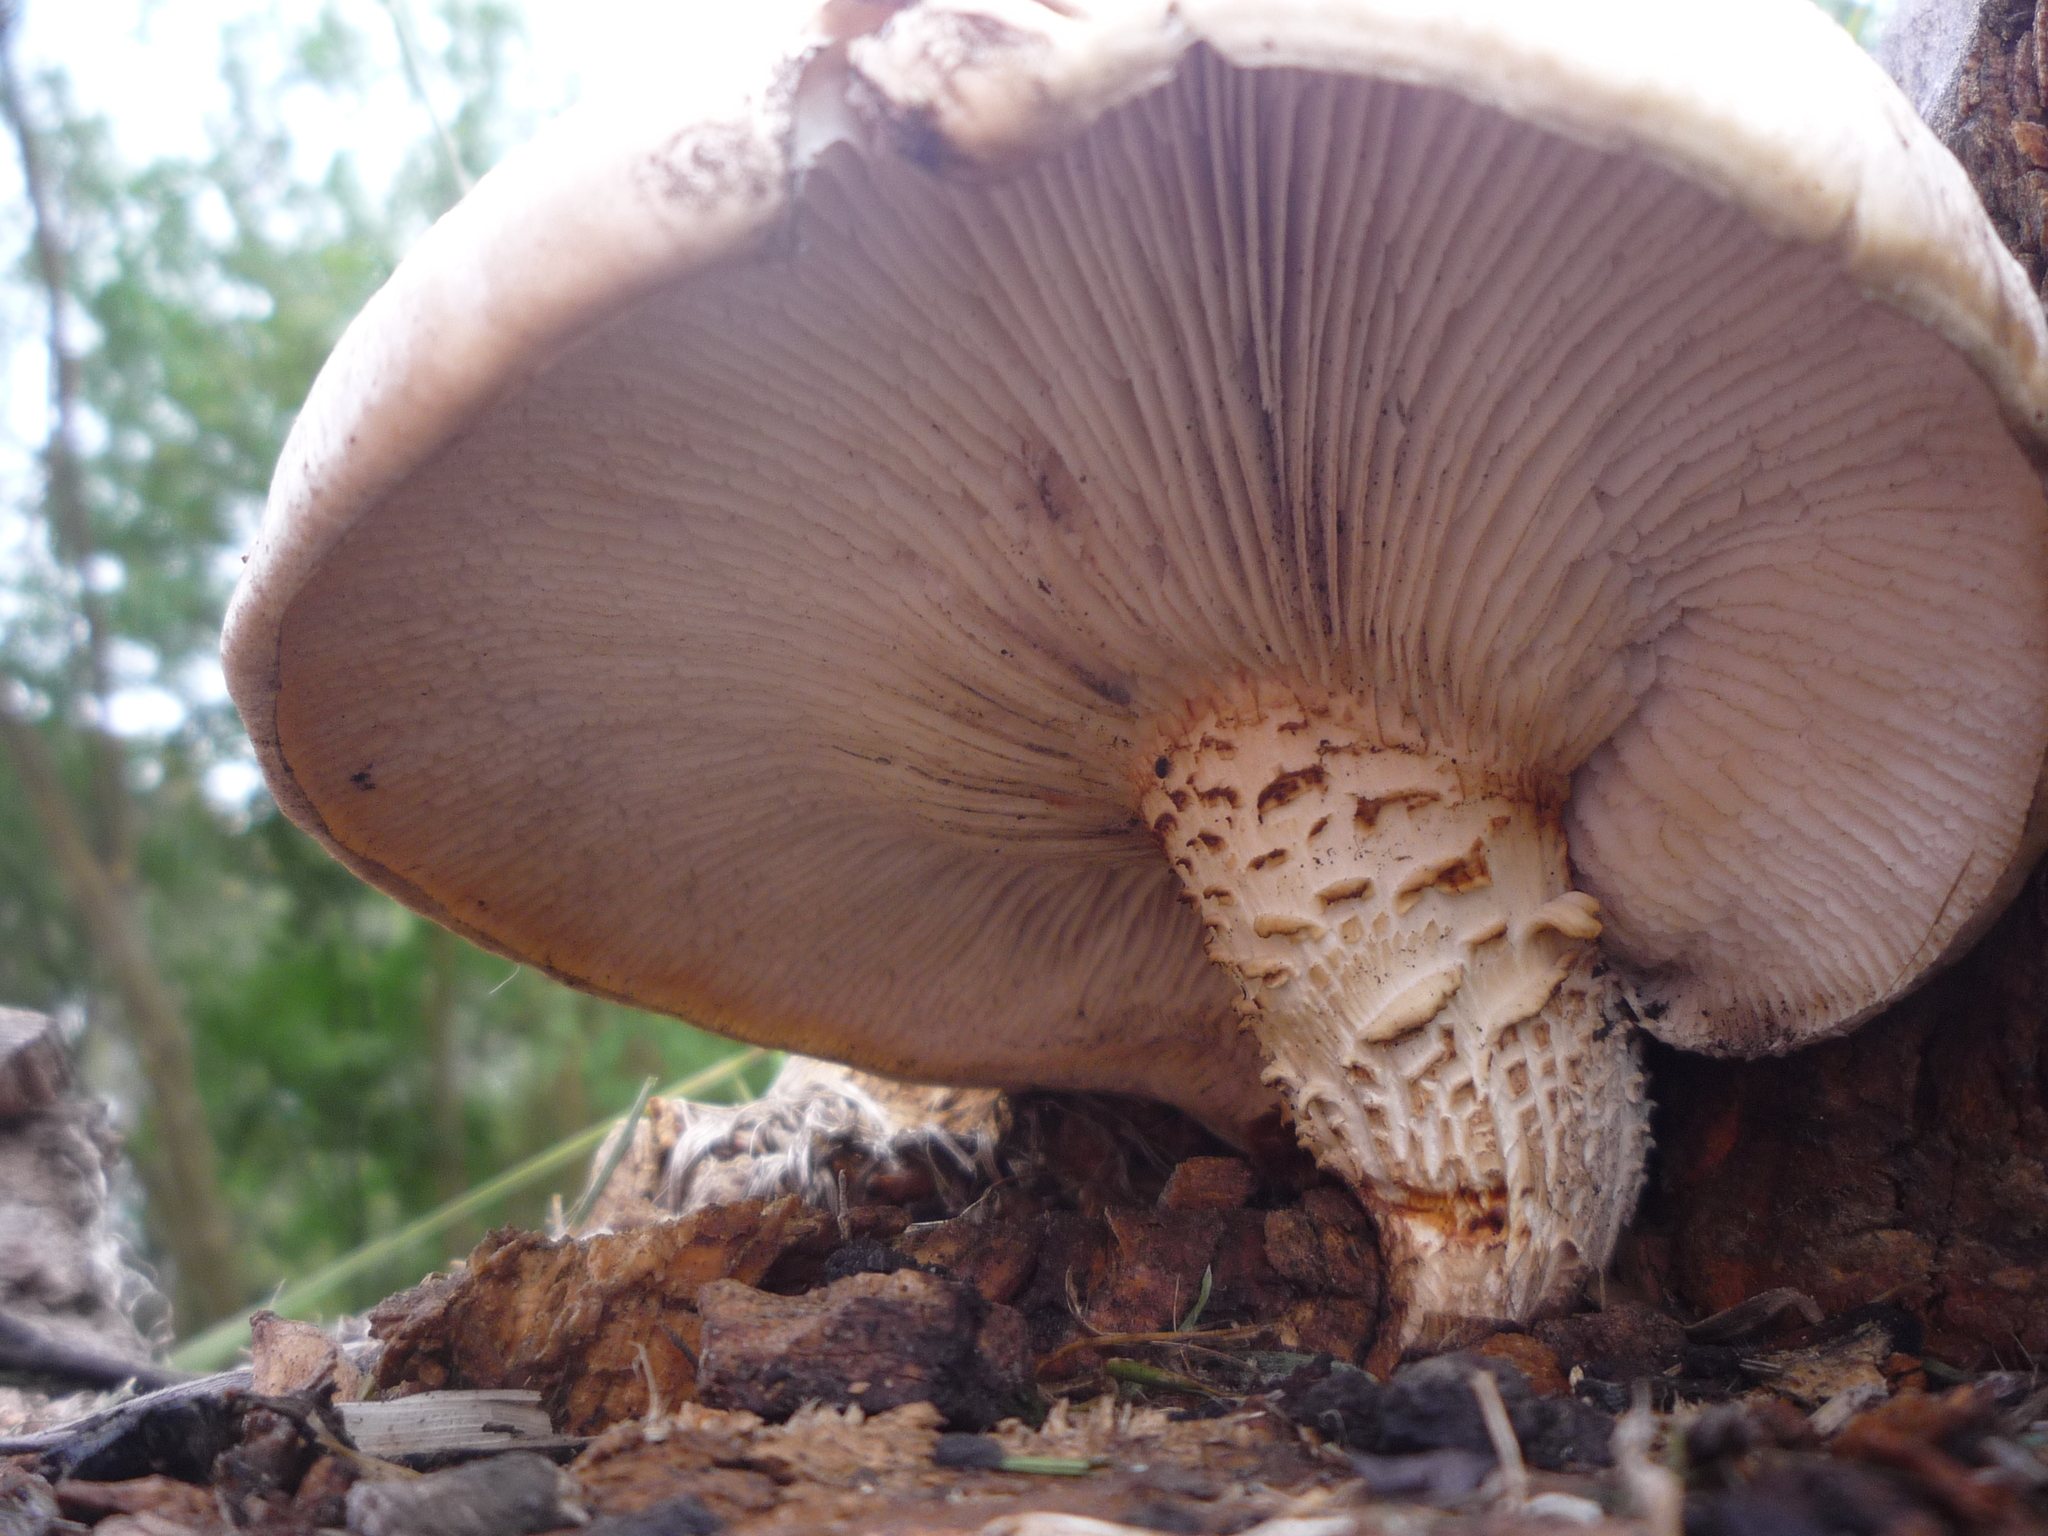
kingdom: Fungi
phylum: Basidiomycota
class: Agaricomycetes
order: Gloeophyllales
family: Gloeophyllaceae
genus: Neolentinus
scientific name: Neolentinus lepideus
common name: Scaly sawgill
